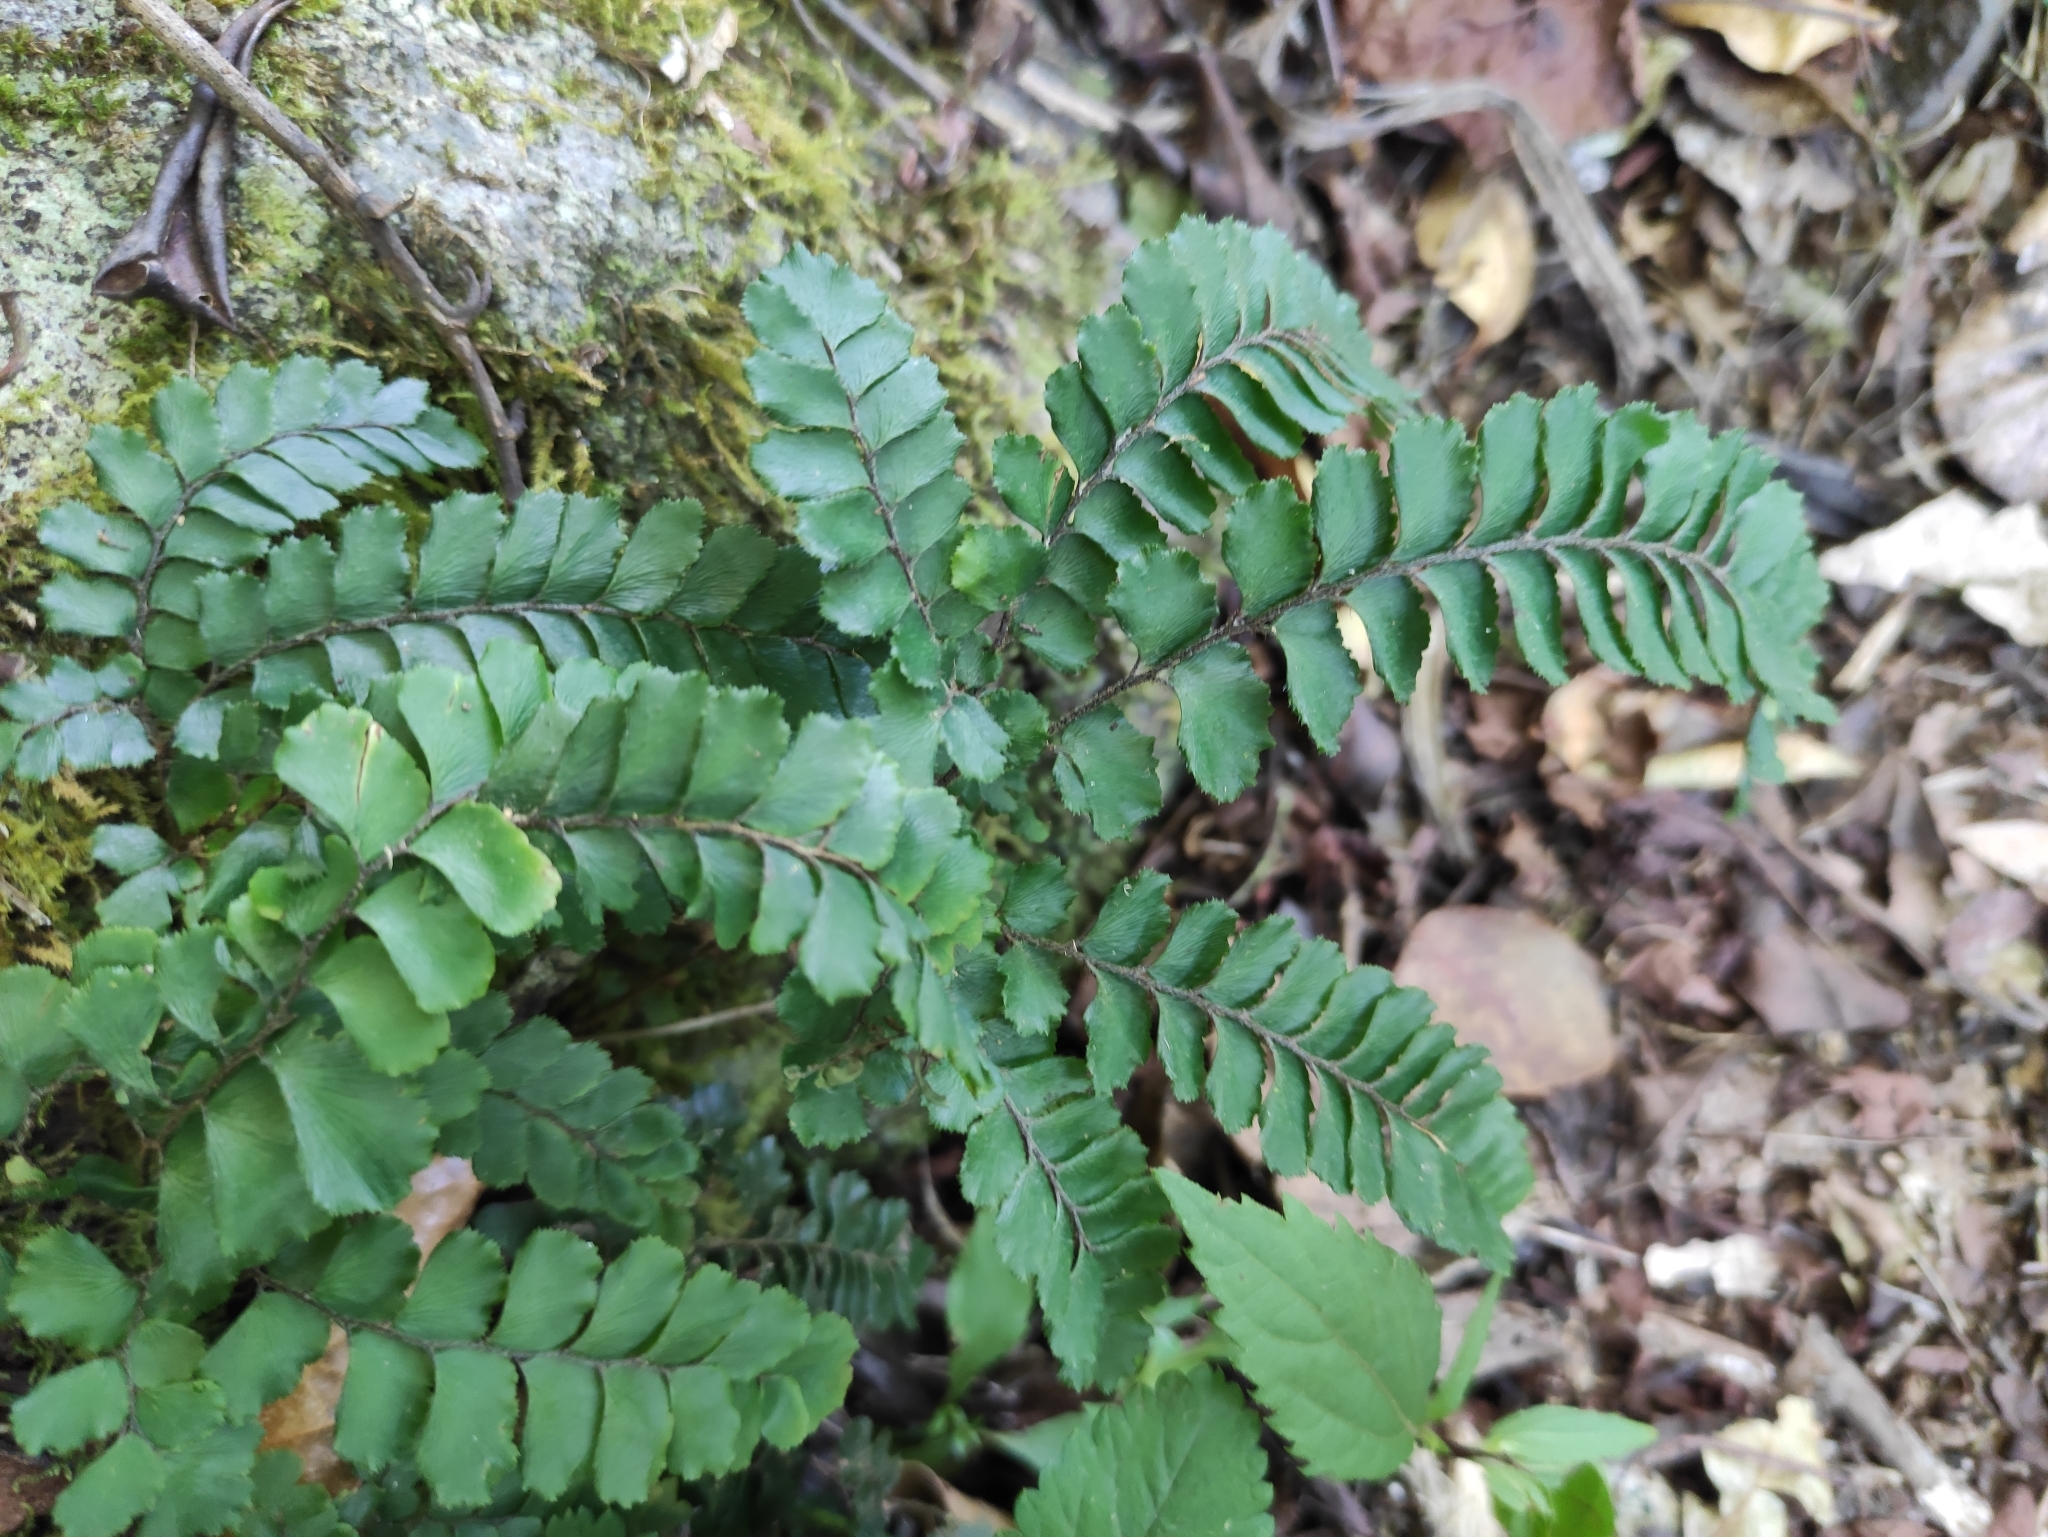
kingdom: Plantae
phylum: Tracheophyta
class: Polypodiopsida
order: Polypodiales
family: Pteridaceae
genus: Adiantum
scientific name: Adiantum hispidulum
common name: Rough maidenhair
